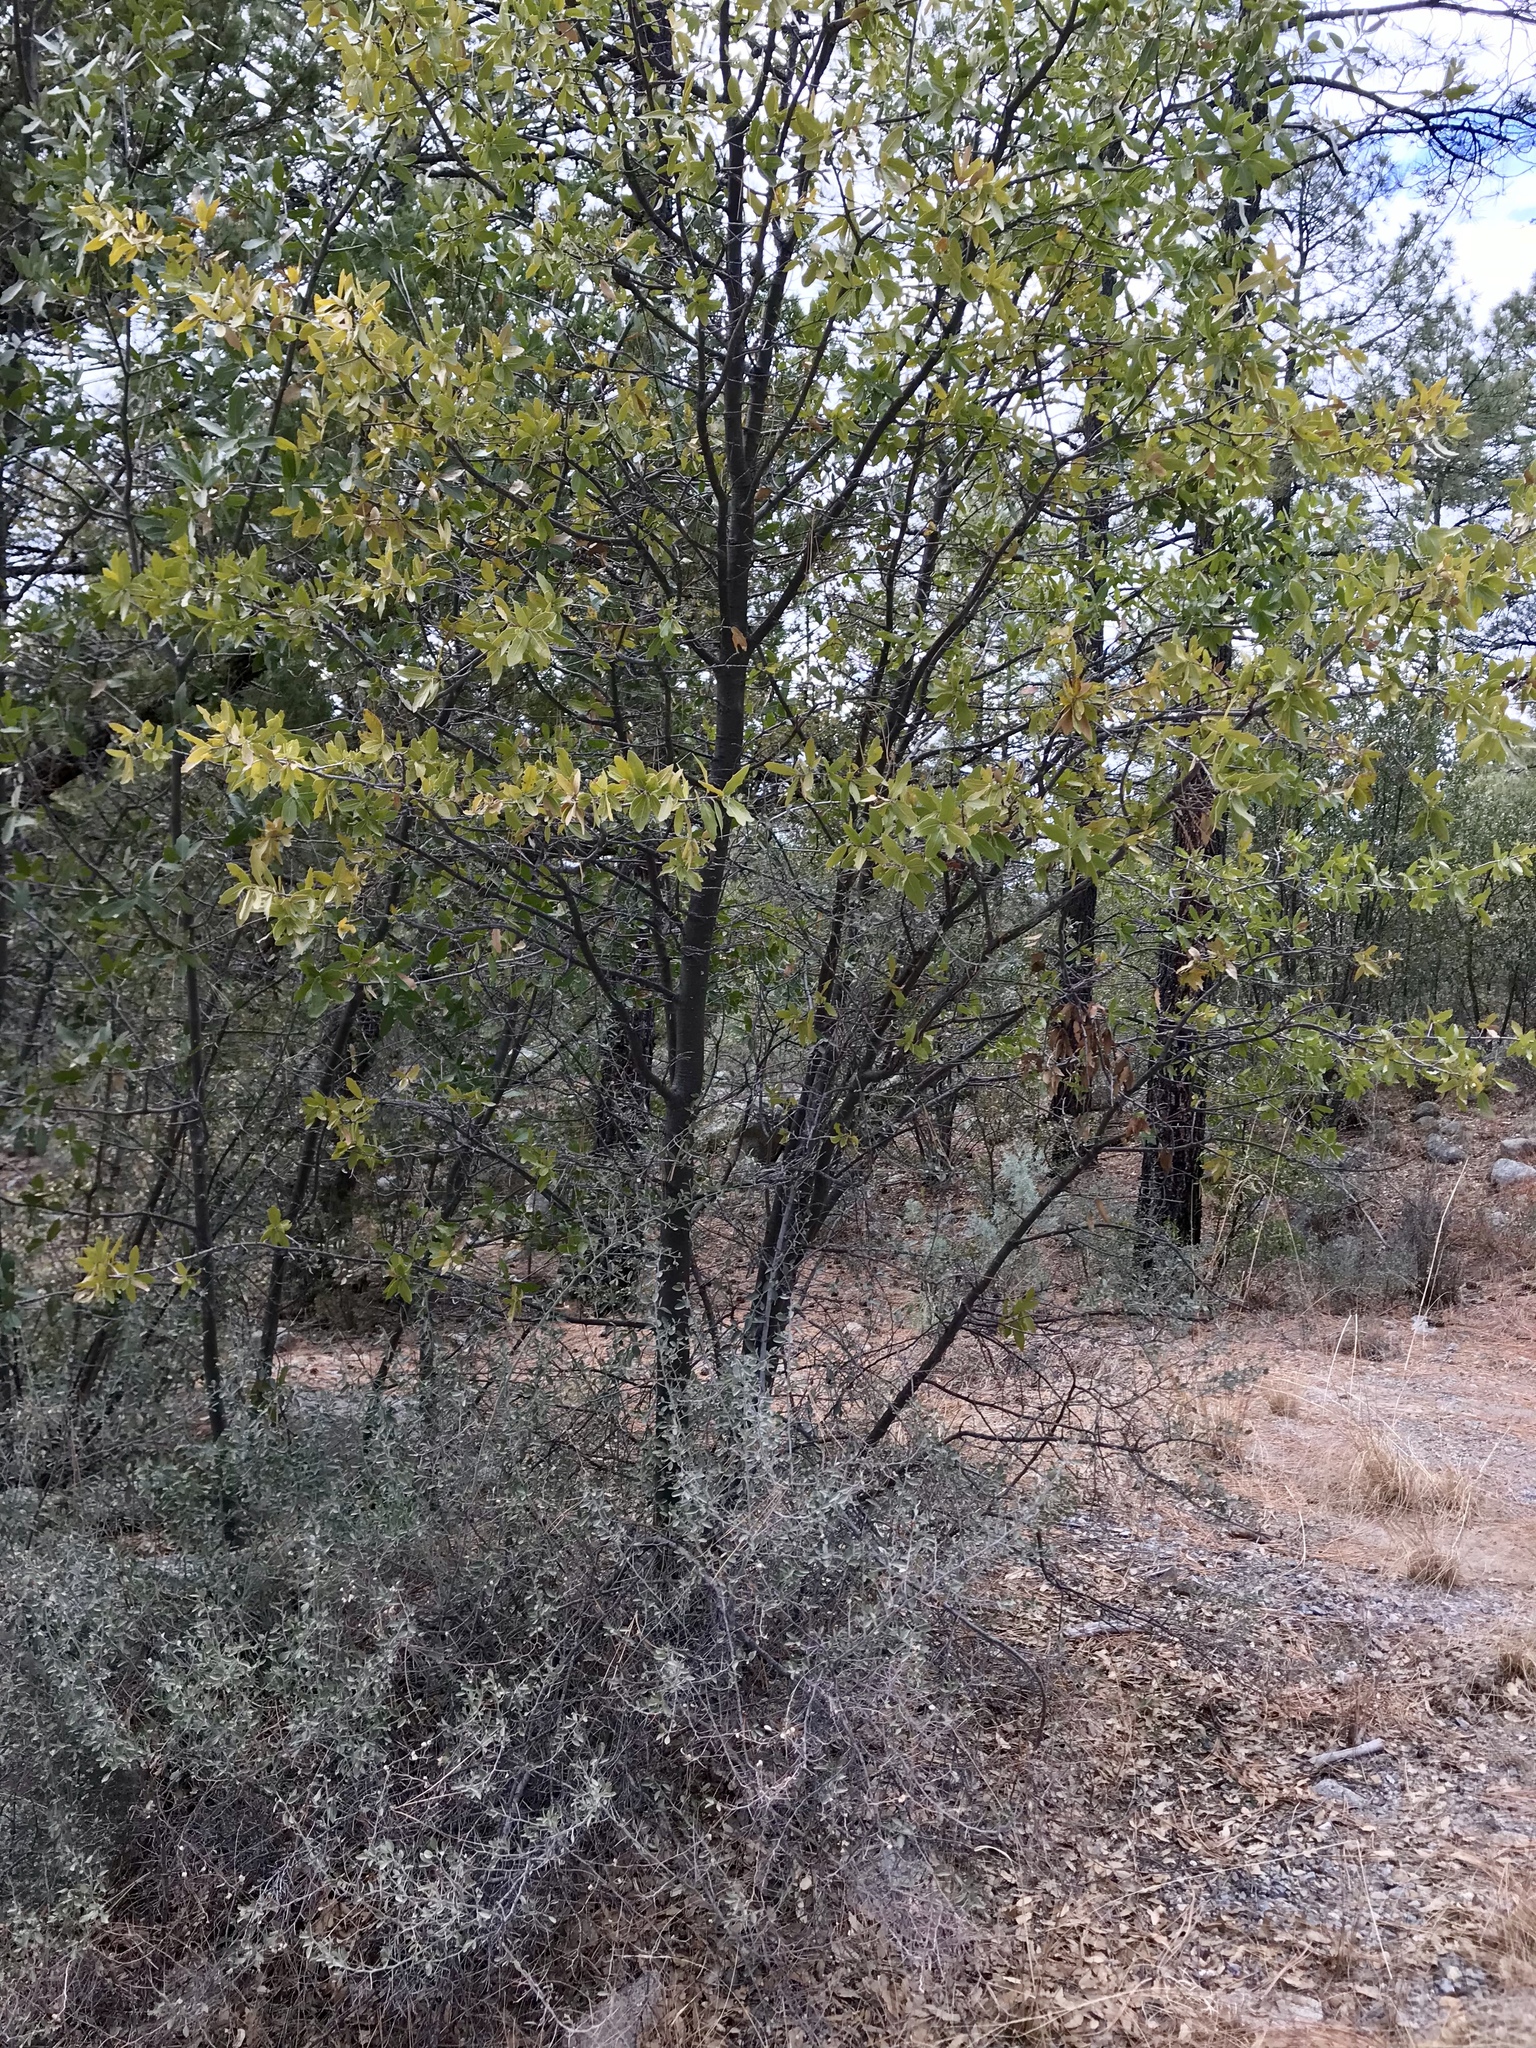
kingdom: Plantae
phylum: Tracheophyta
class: Magnoliopsida
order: Fagales
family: Fagaceae
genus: Quercus
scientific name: Quercus emoryi
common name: Emory oak
